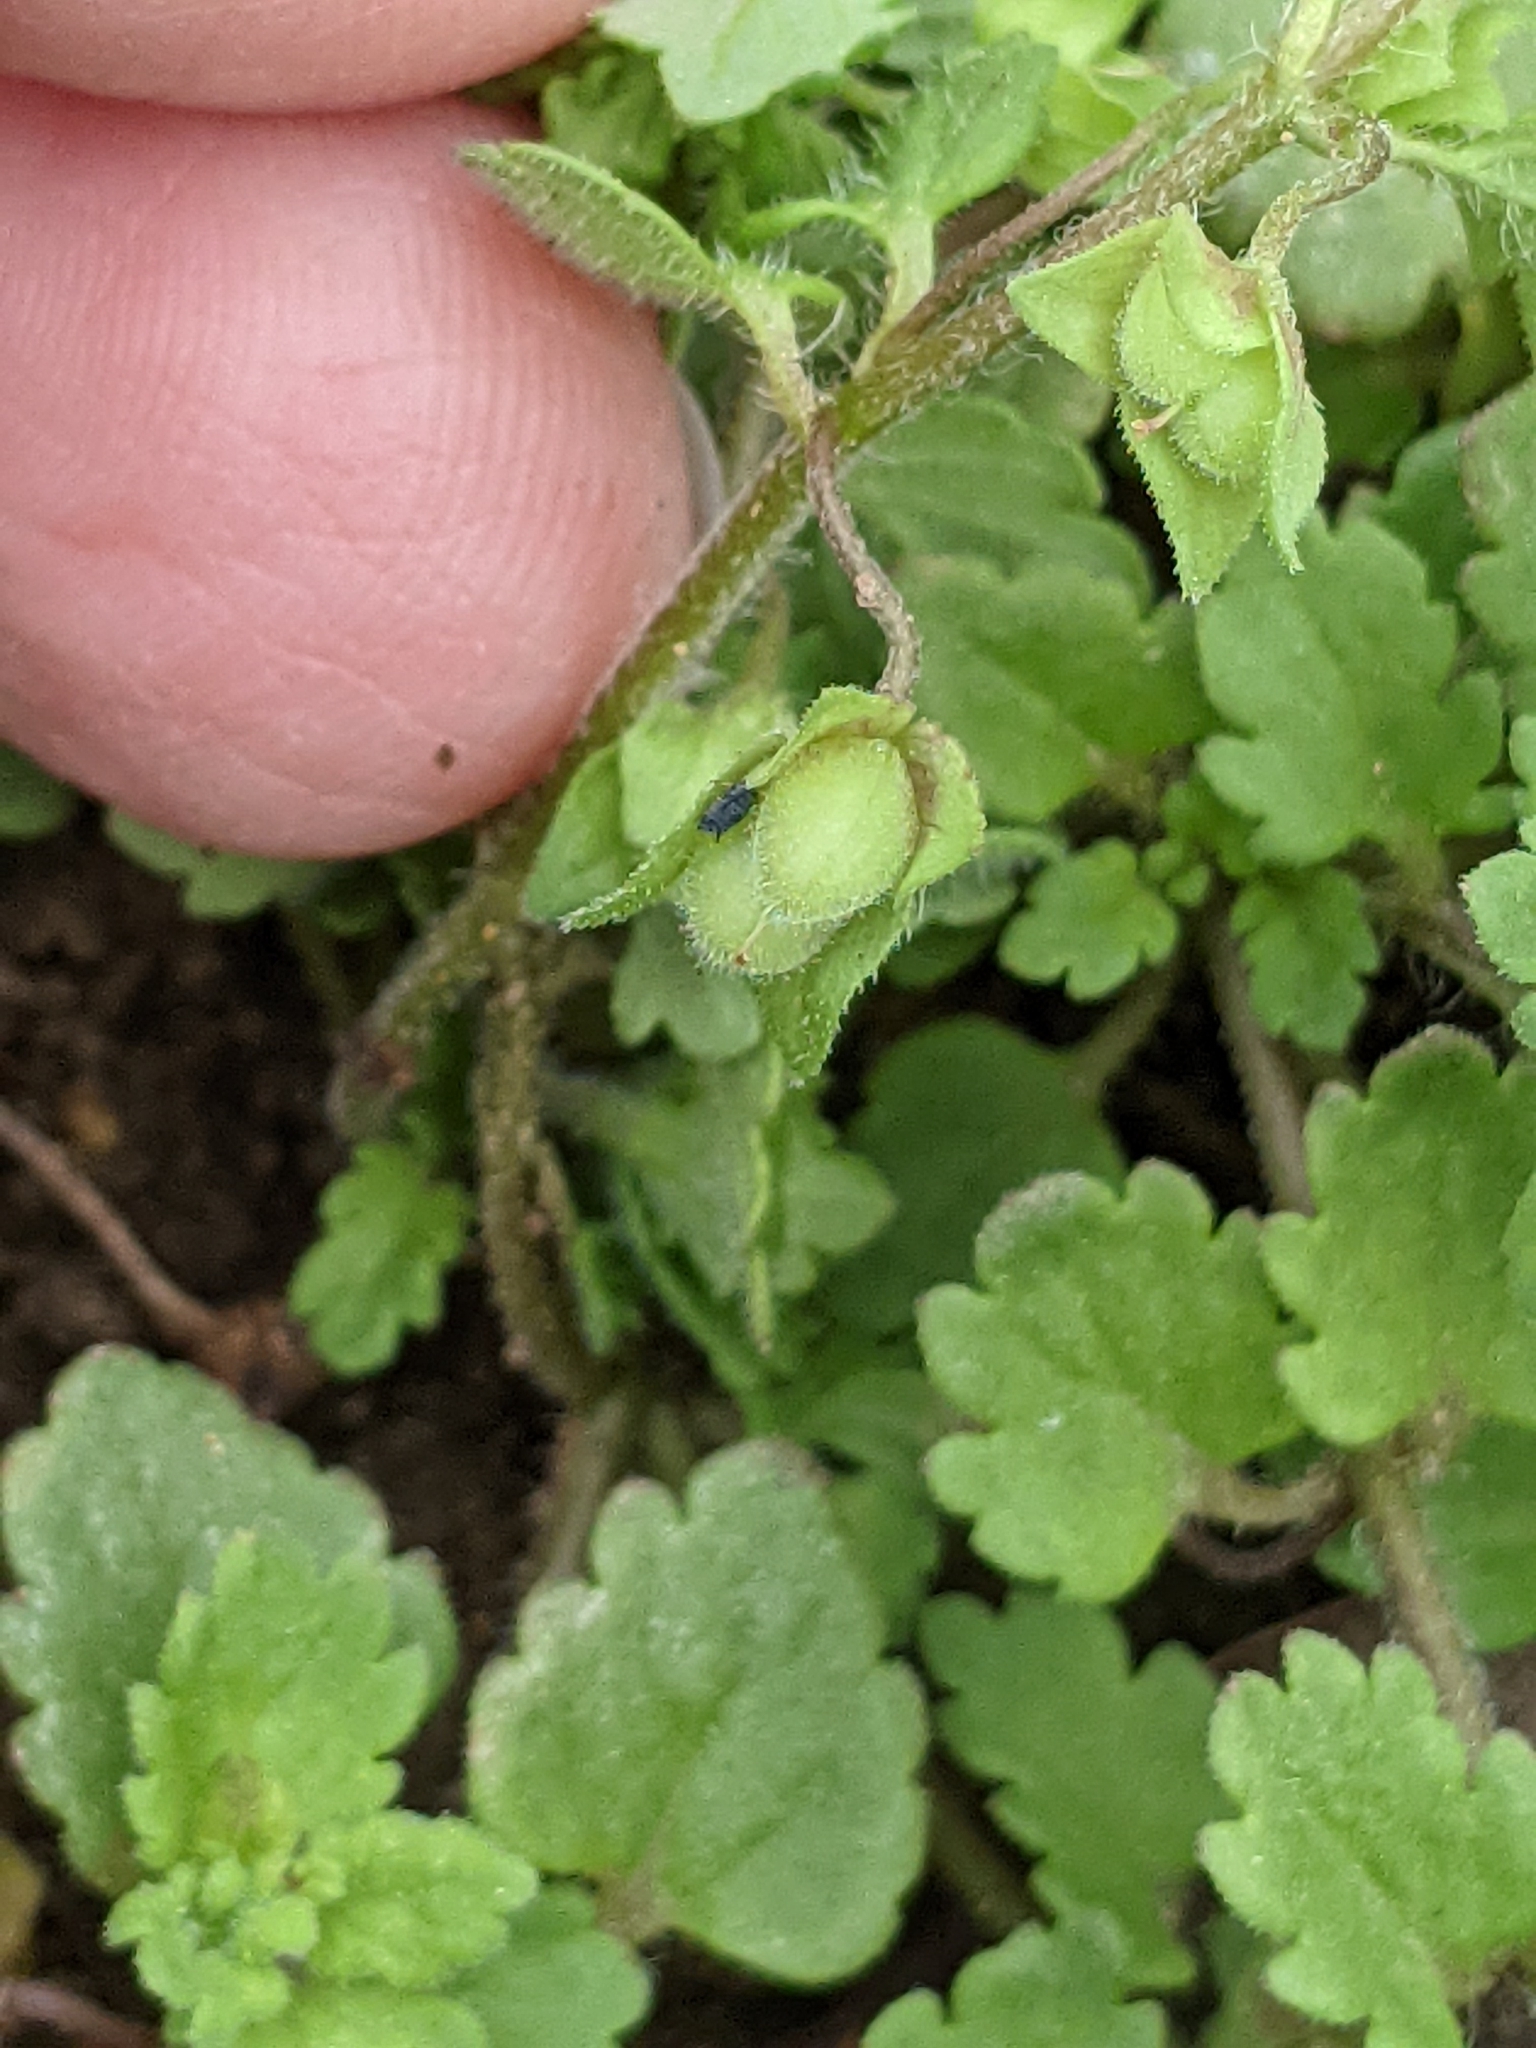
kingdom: Plantae
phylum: Tracheophyta
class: Magnoliopsida
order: Lamiales
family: Plantaginaceae
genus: Veronica
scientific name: Veronica polita
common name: Grey field-speedwell
